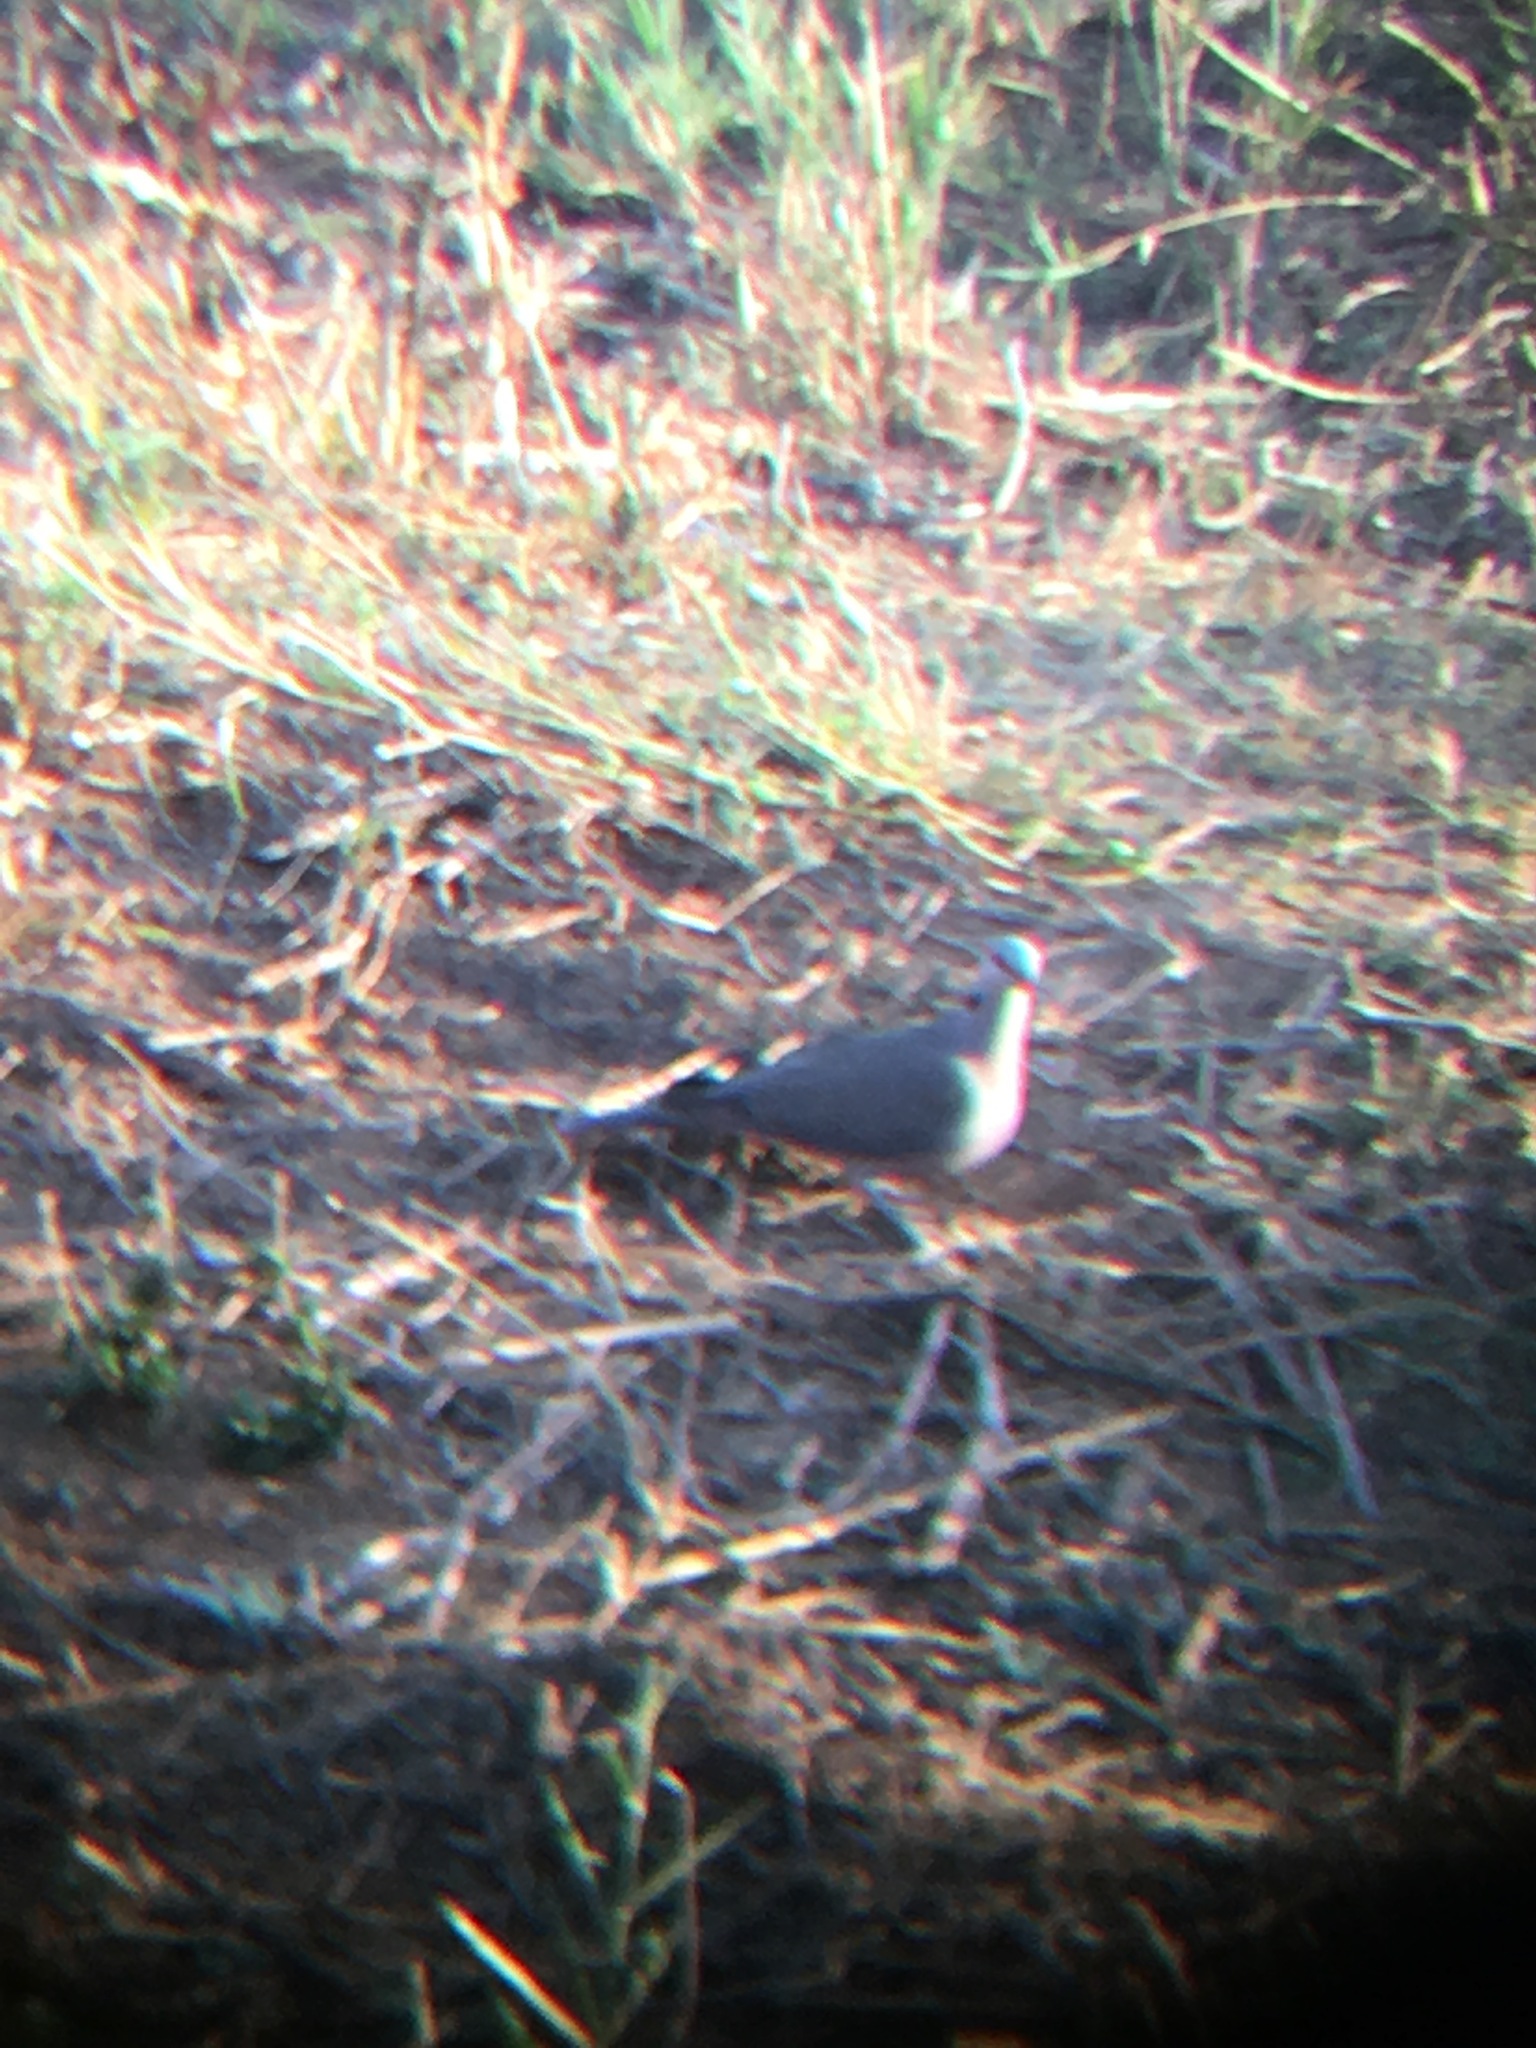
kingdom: Animalia
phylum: Chordata
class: Aves
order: Columbiformes
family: Columbidae
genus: Streptopelia
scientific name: Streptopelia semitorquata
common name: Red-eyed dove
